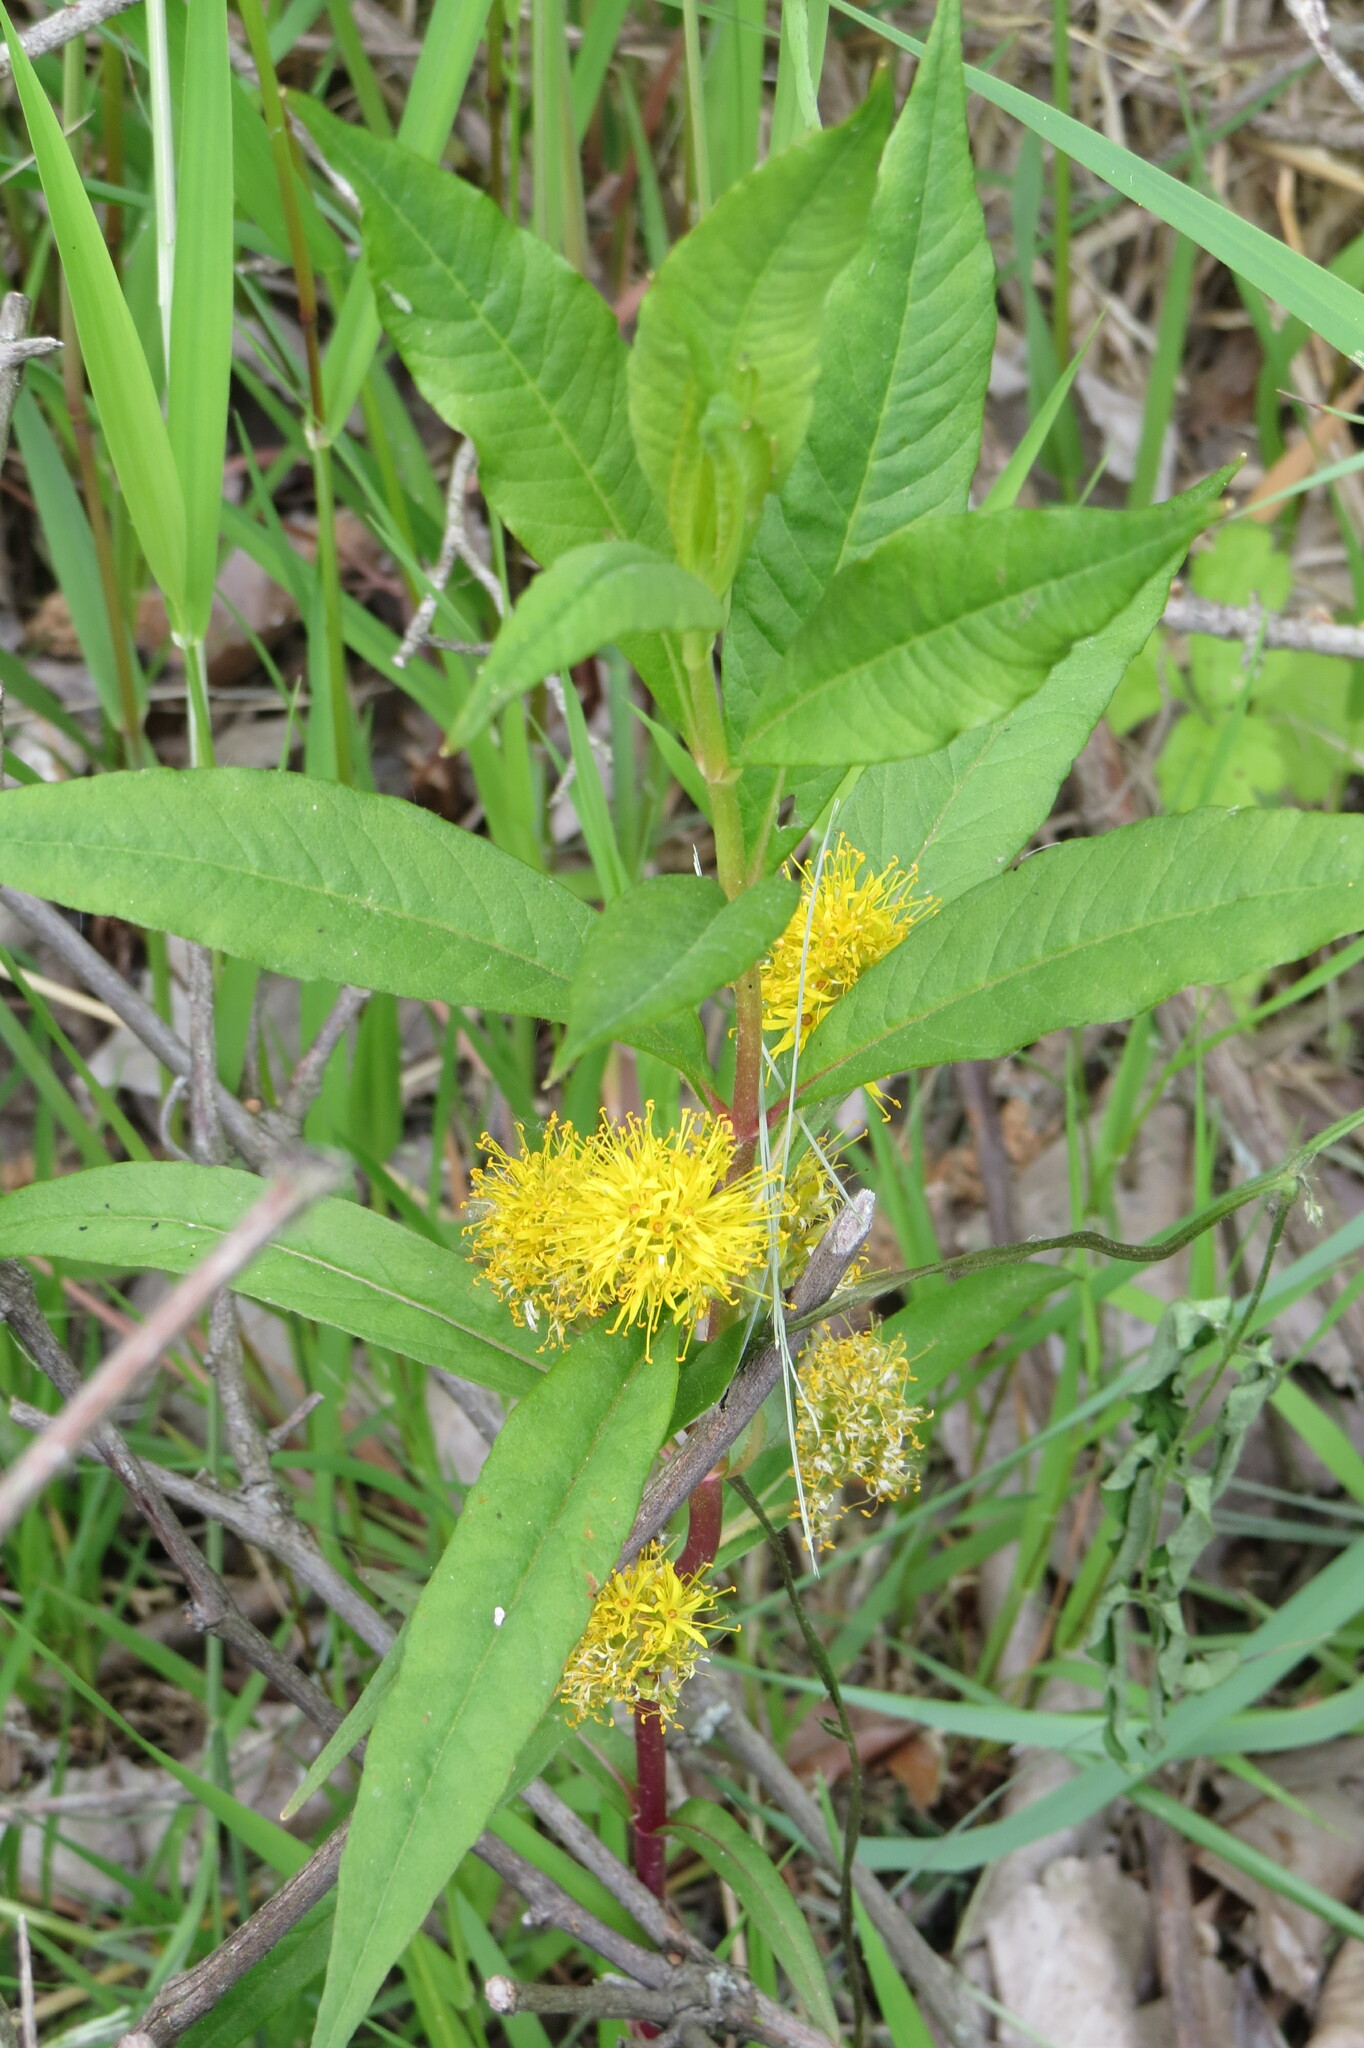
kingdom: Plantae
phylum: Tracheophyta
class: Magnoliopsida
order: Ericales
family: Primulaceae
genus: Lysimachia
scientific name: Lysimachia thyrsiflora
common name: Tufted loosestrife
